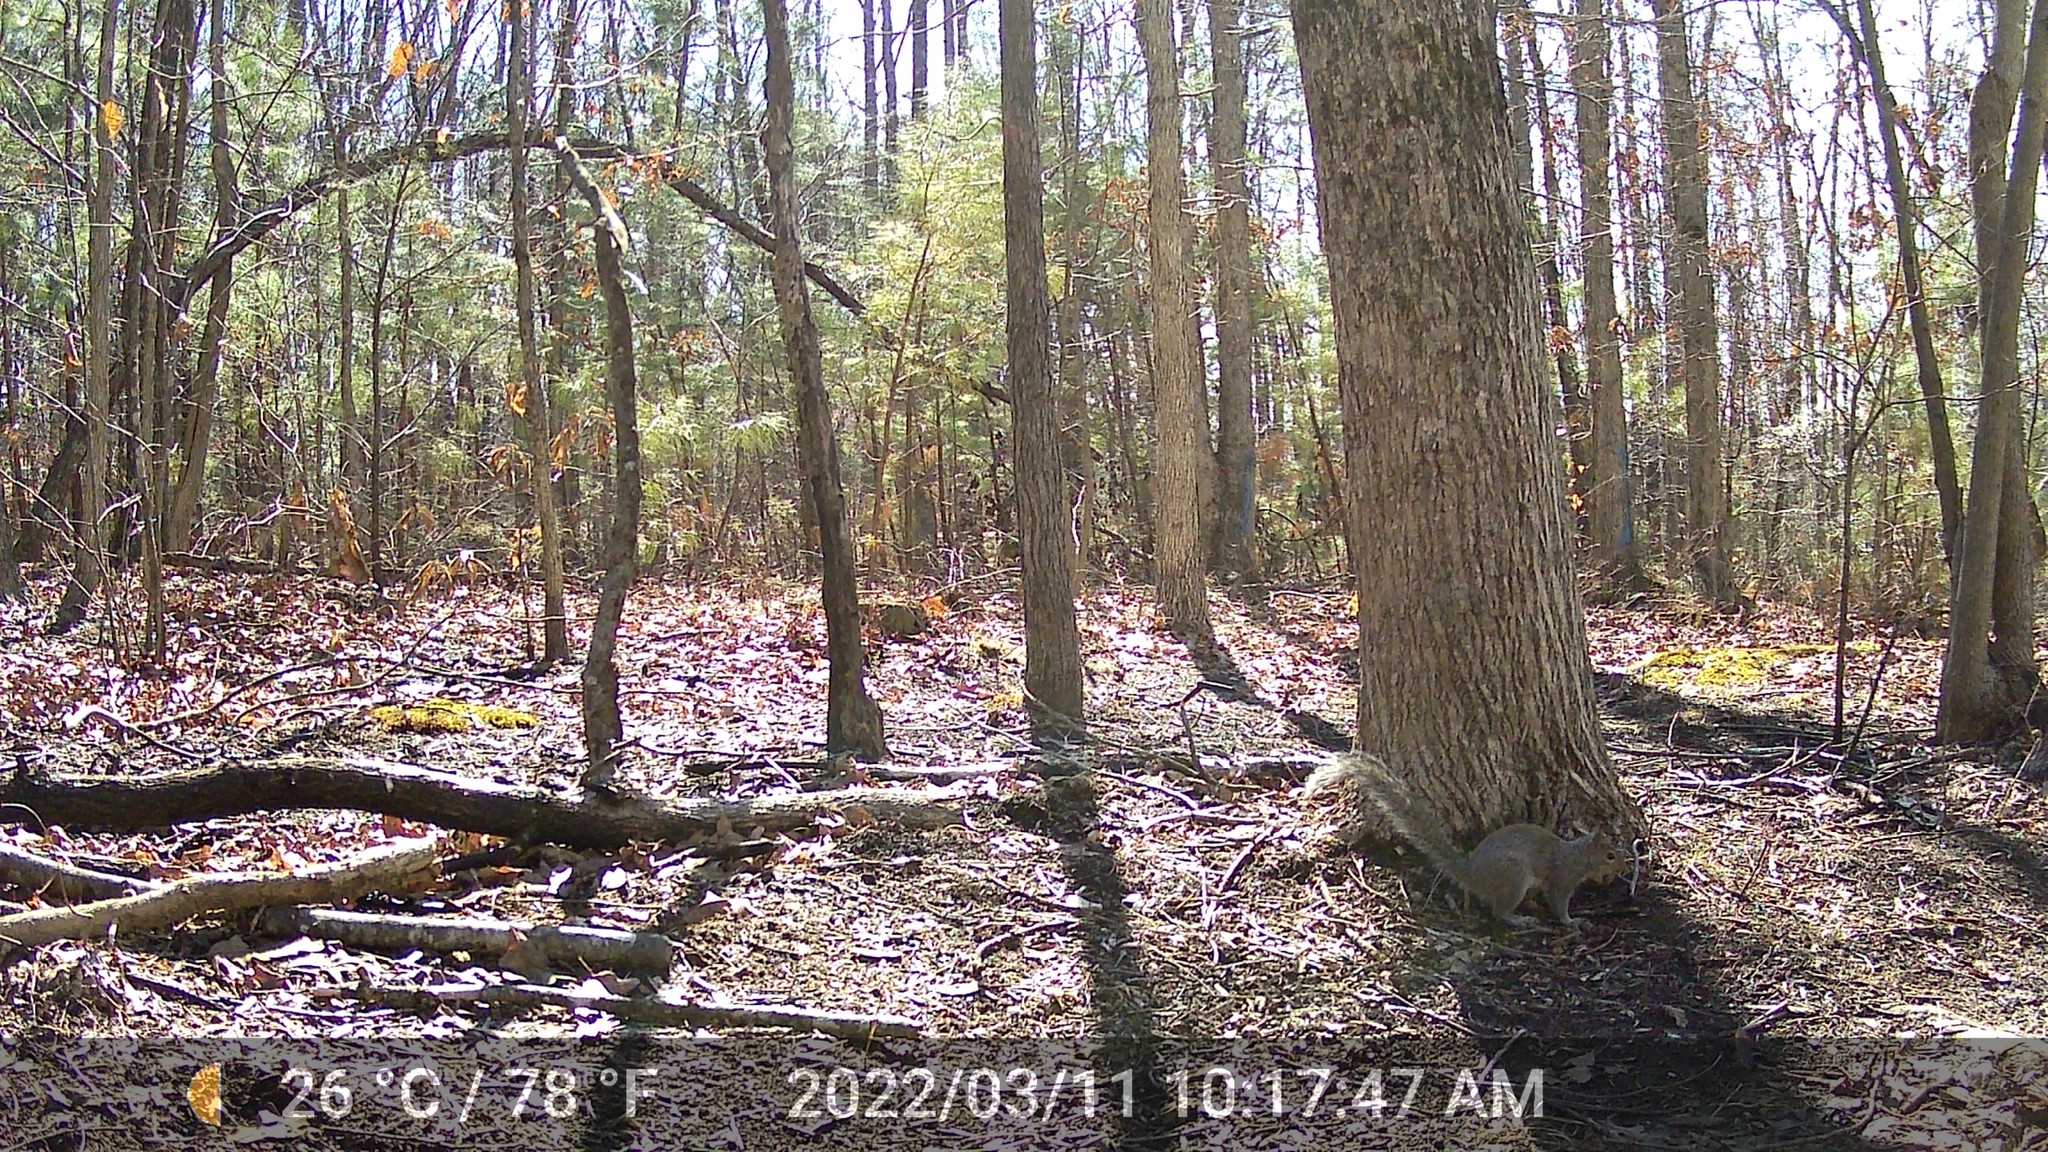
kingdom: Animalia
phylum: Chordata
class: Mammalia
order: Rodentia
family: Sciuridae
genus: Sciurus
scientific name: Sciurus carolinensis
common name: Eastern gray squirrel
